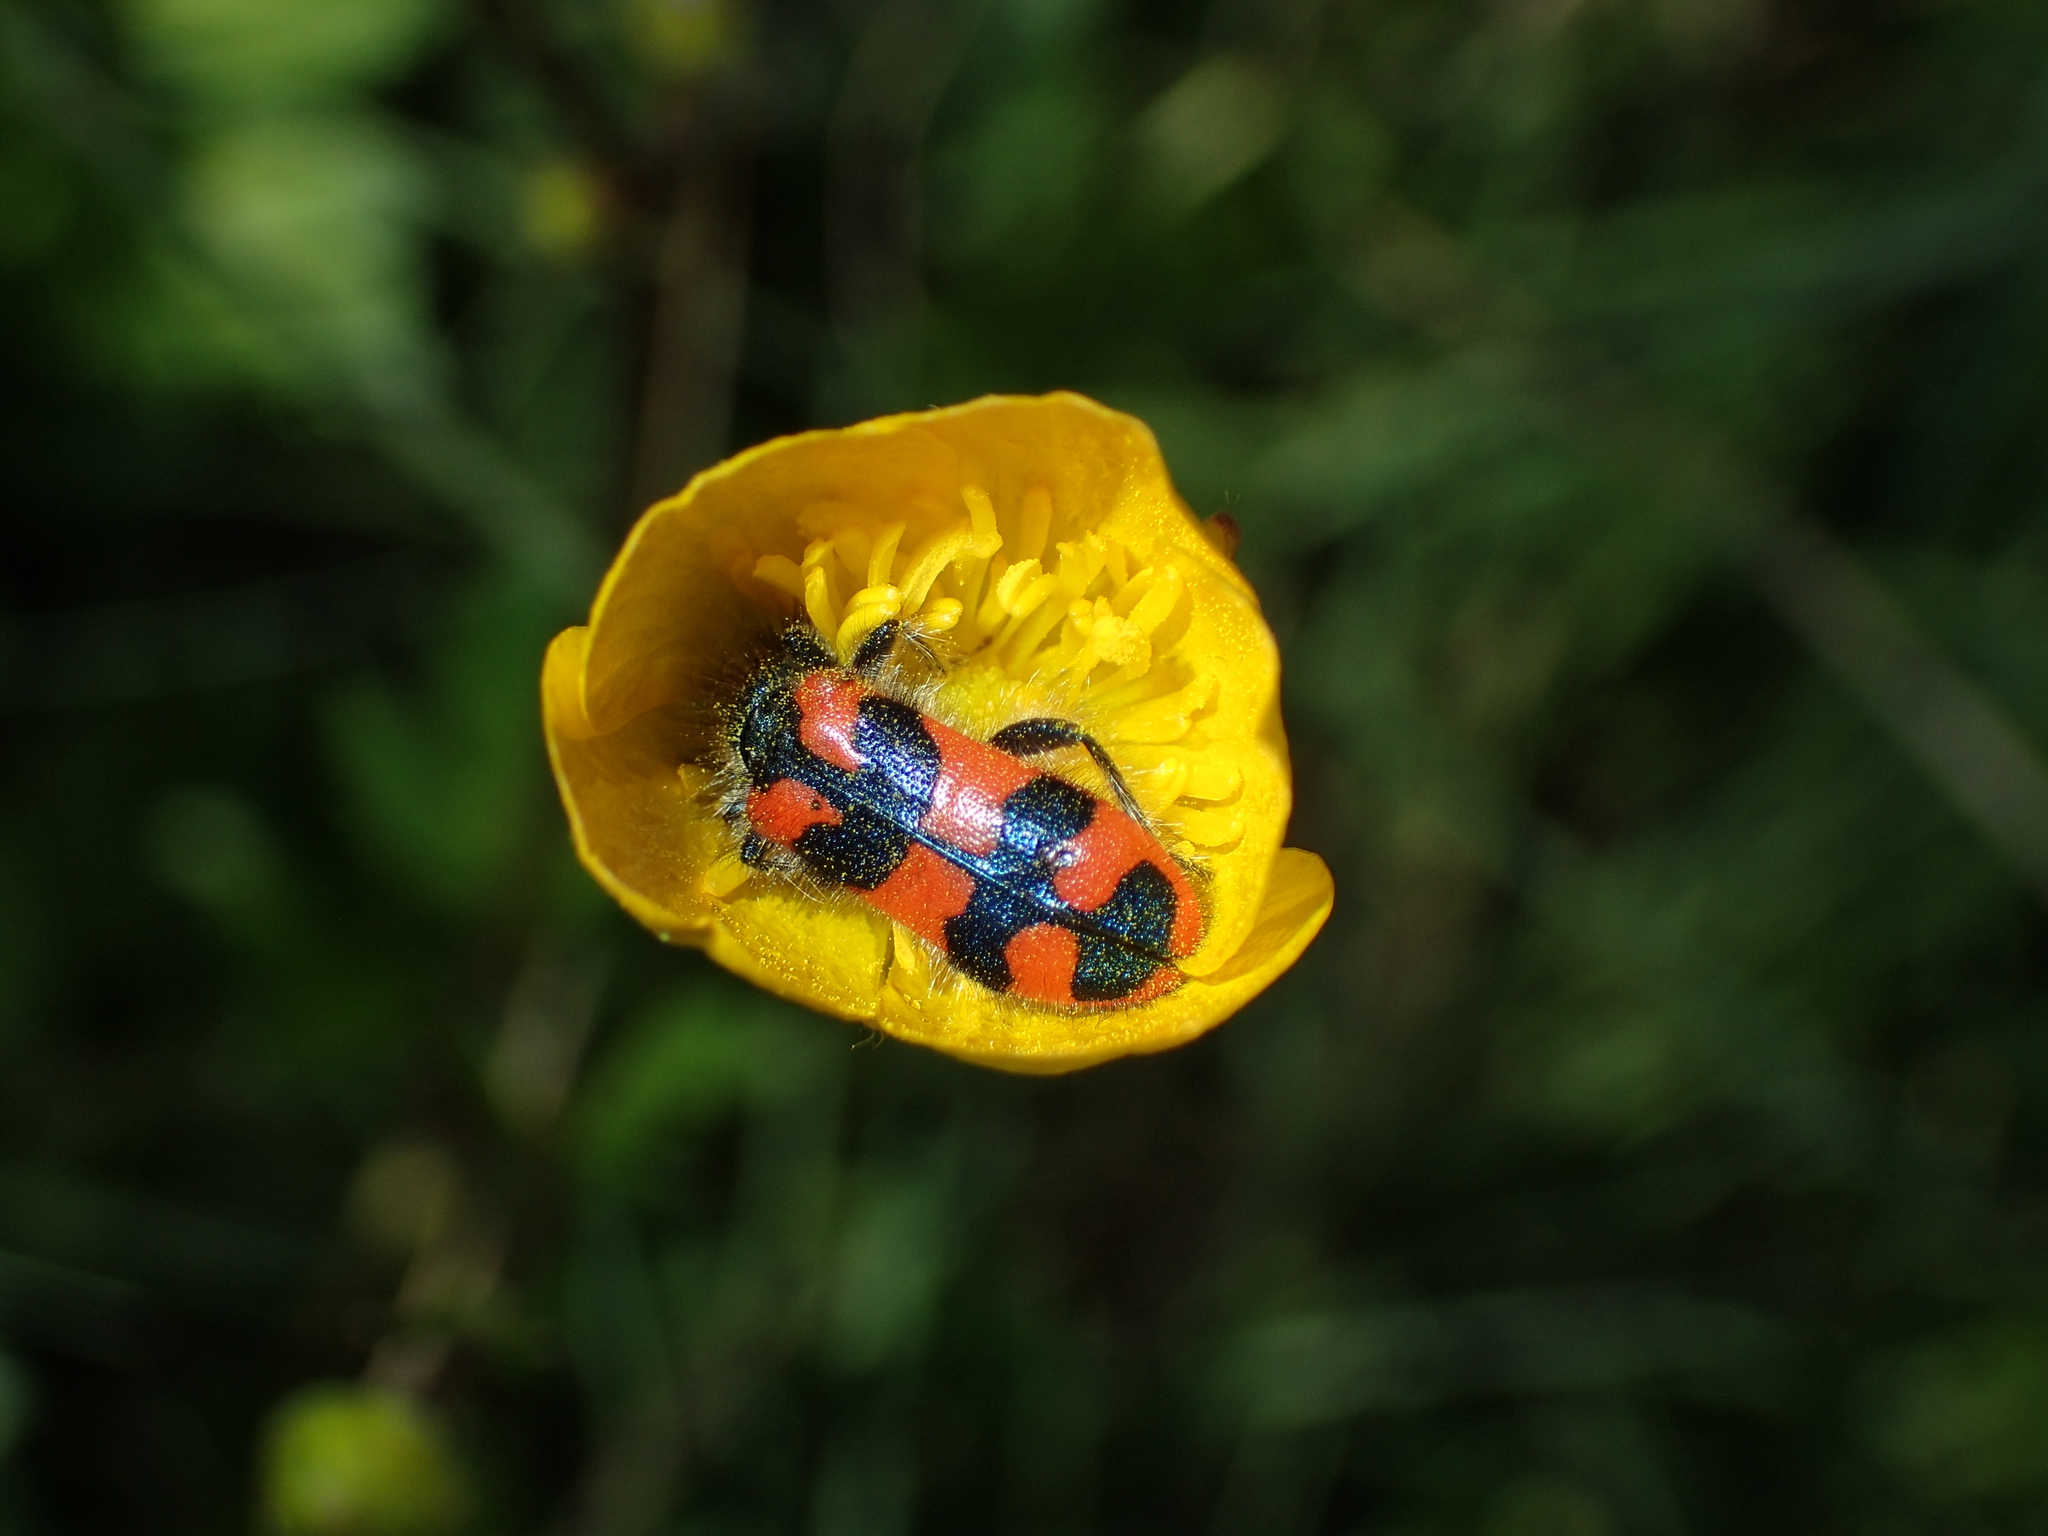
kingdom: Animalia
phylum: Arthropoda
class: Insecta
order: Coleoptera
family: Cleridae
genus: Trichodes
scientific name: Trichodes alvearius
